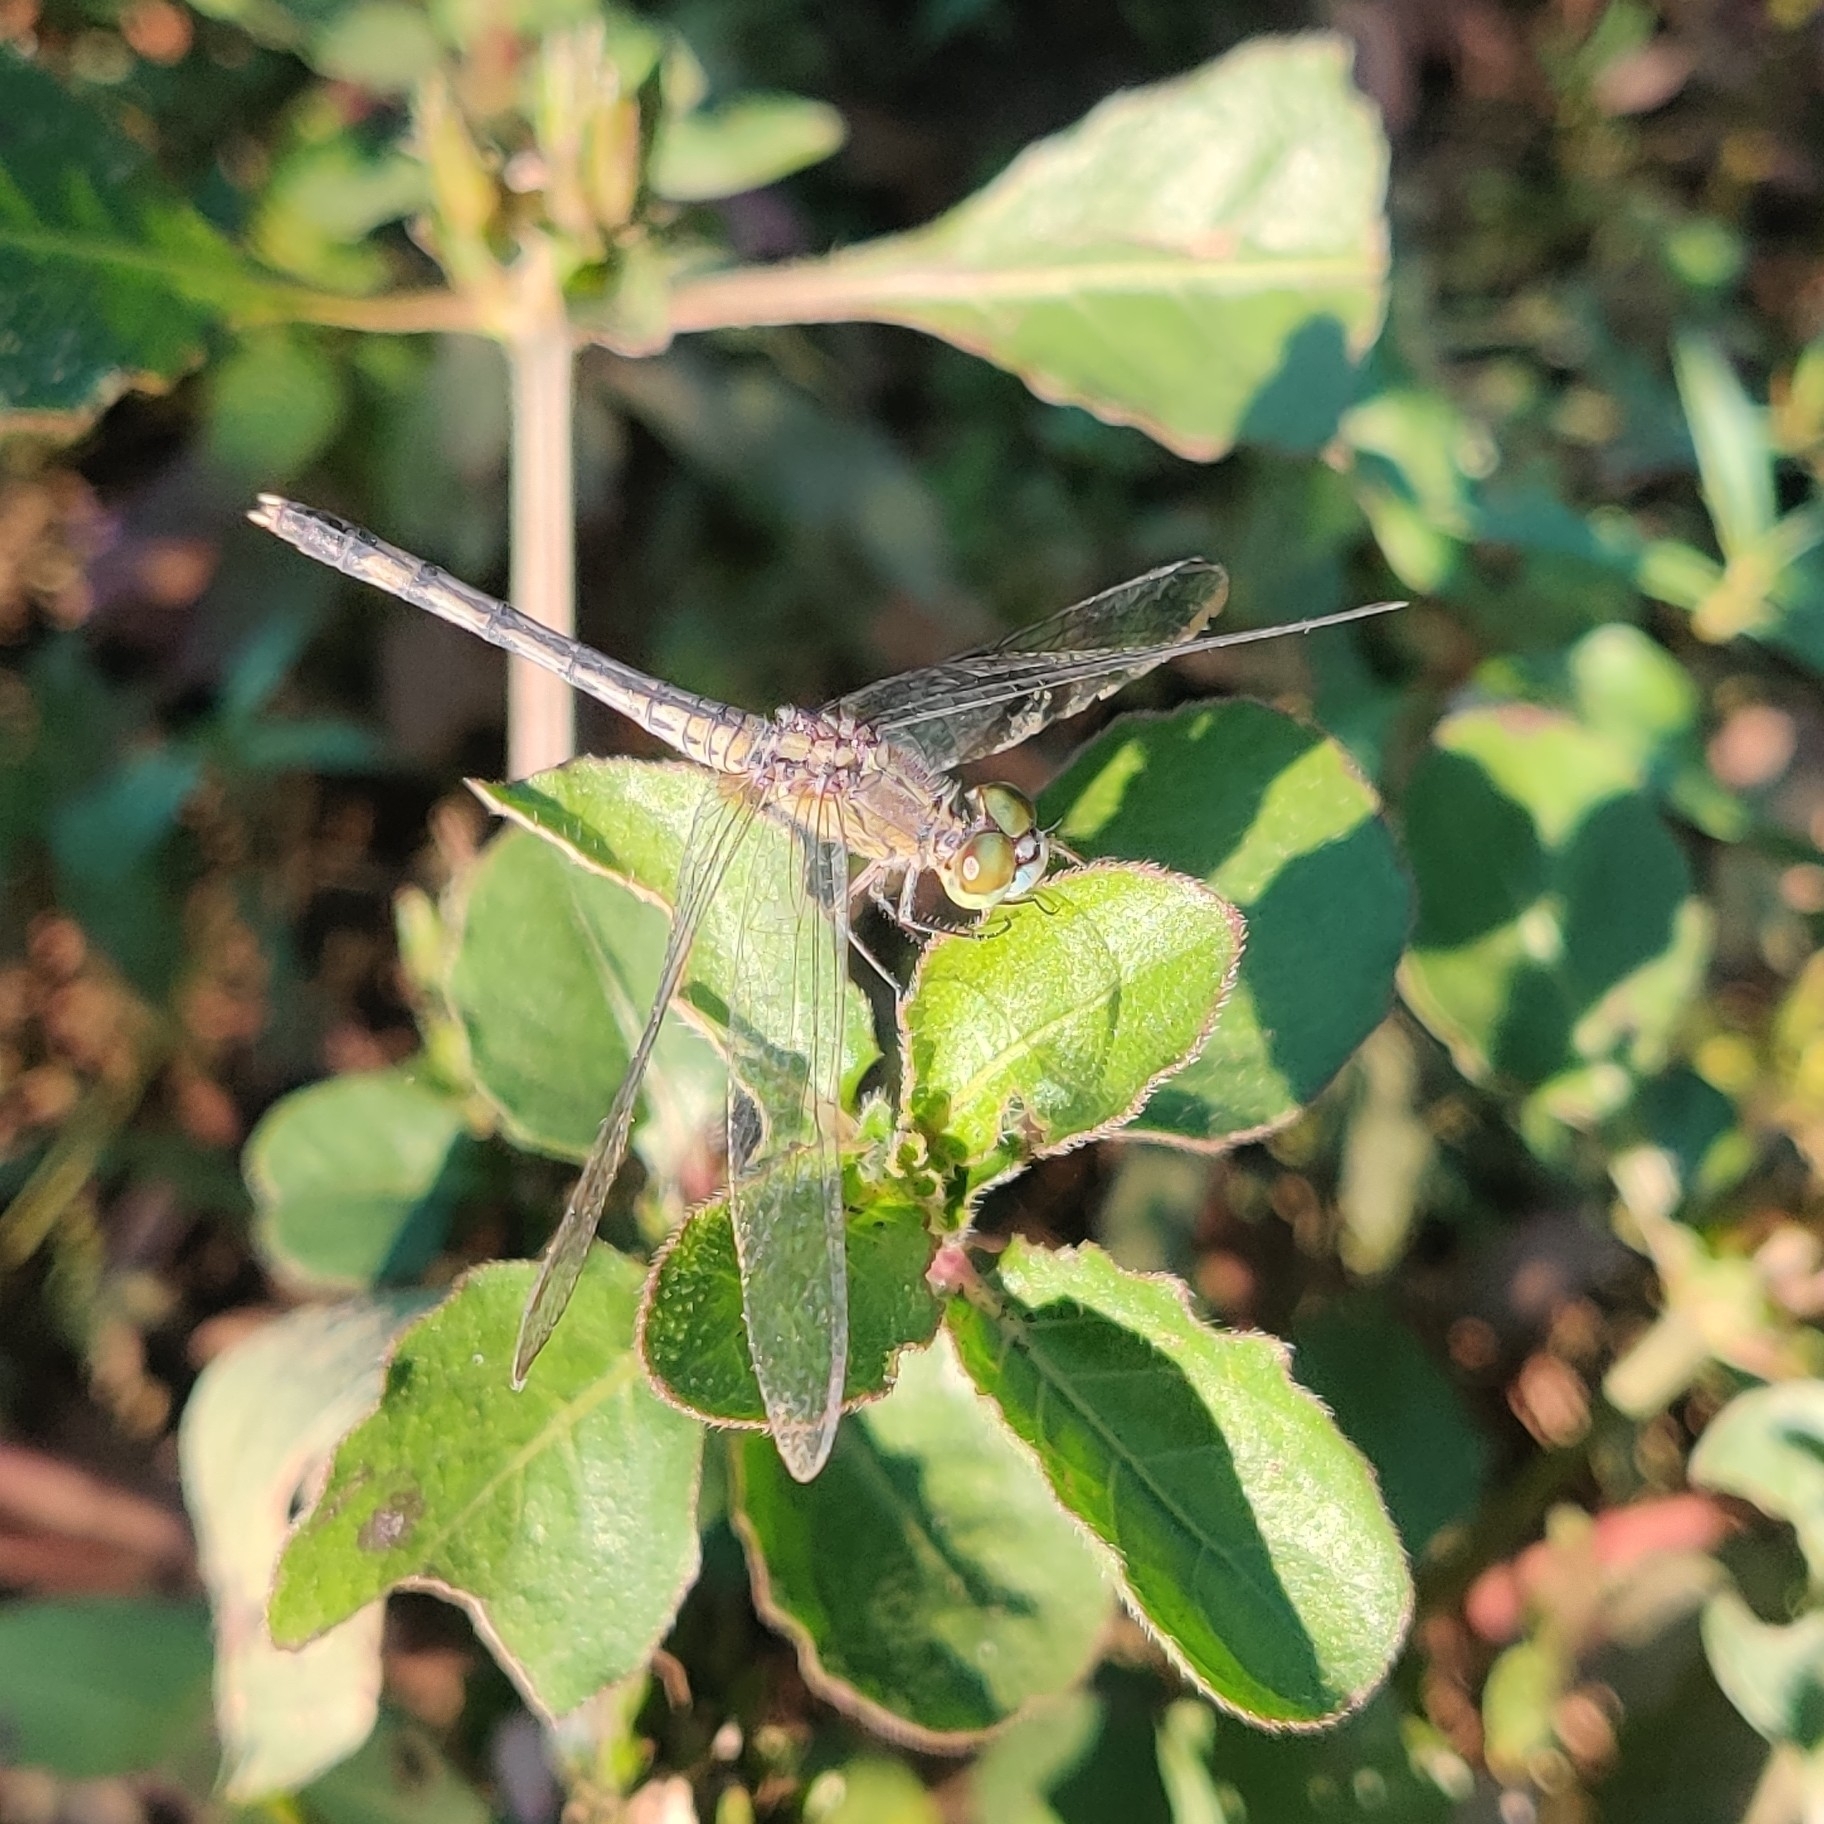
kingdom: Animalia
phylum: Arthropoda
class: Insecta
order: Odonata
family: Libellulidae
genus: Diplacodes
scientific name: Diplacodes trivialis
